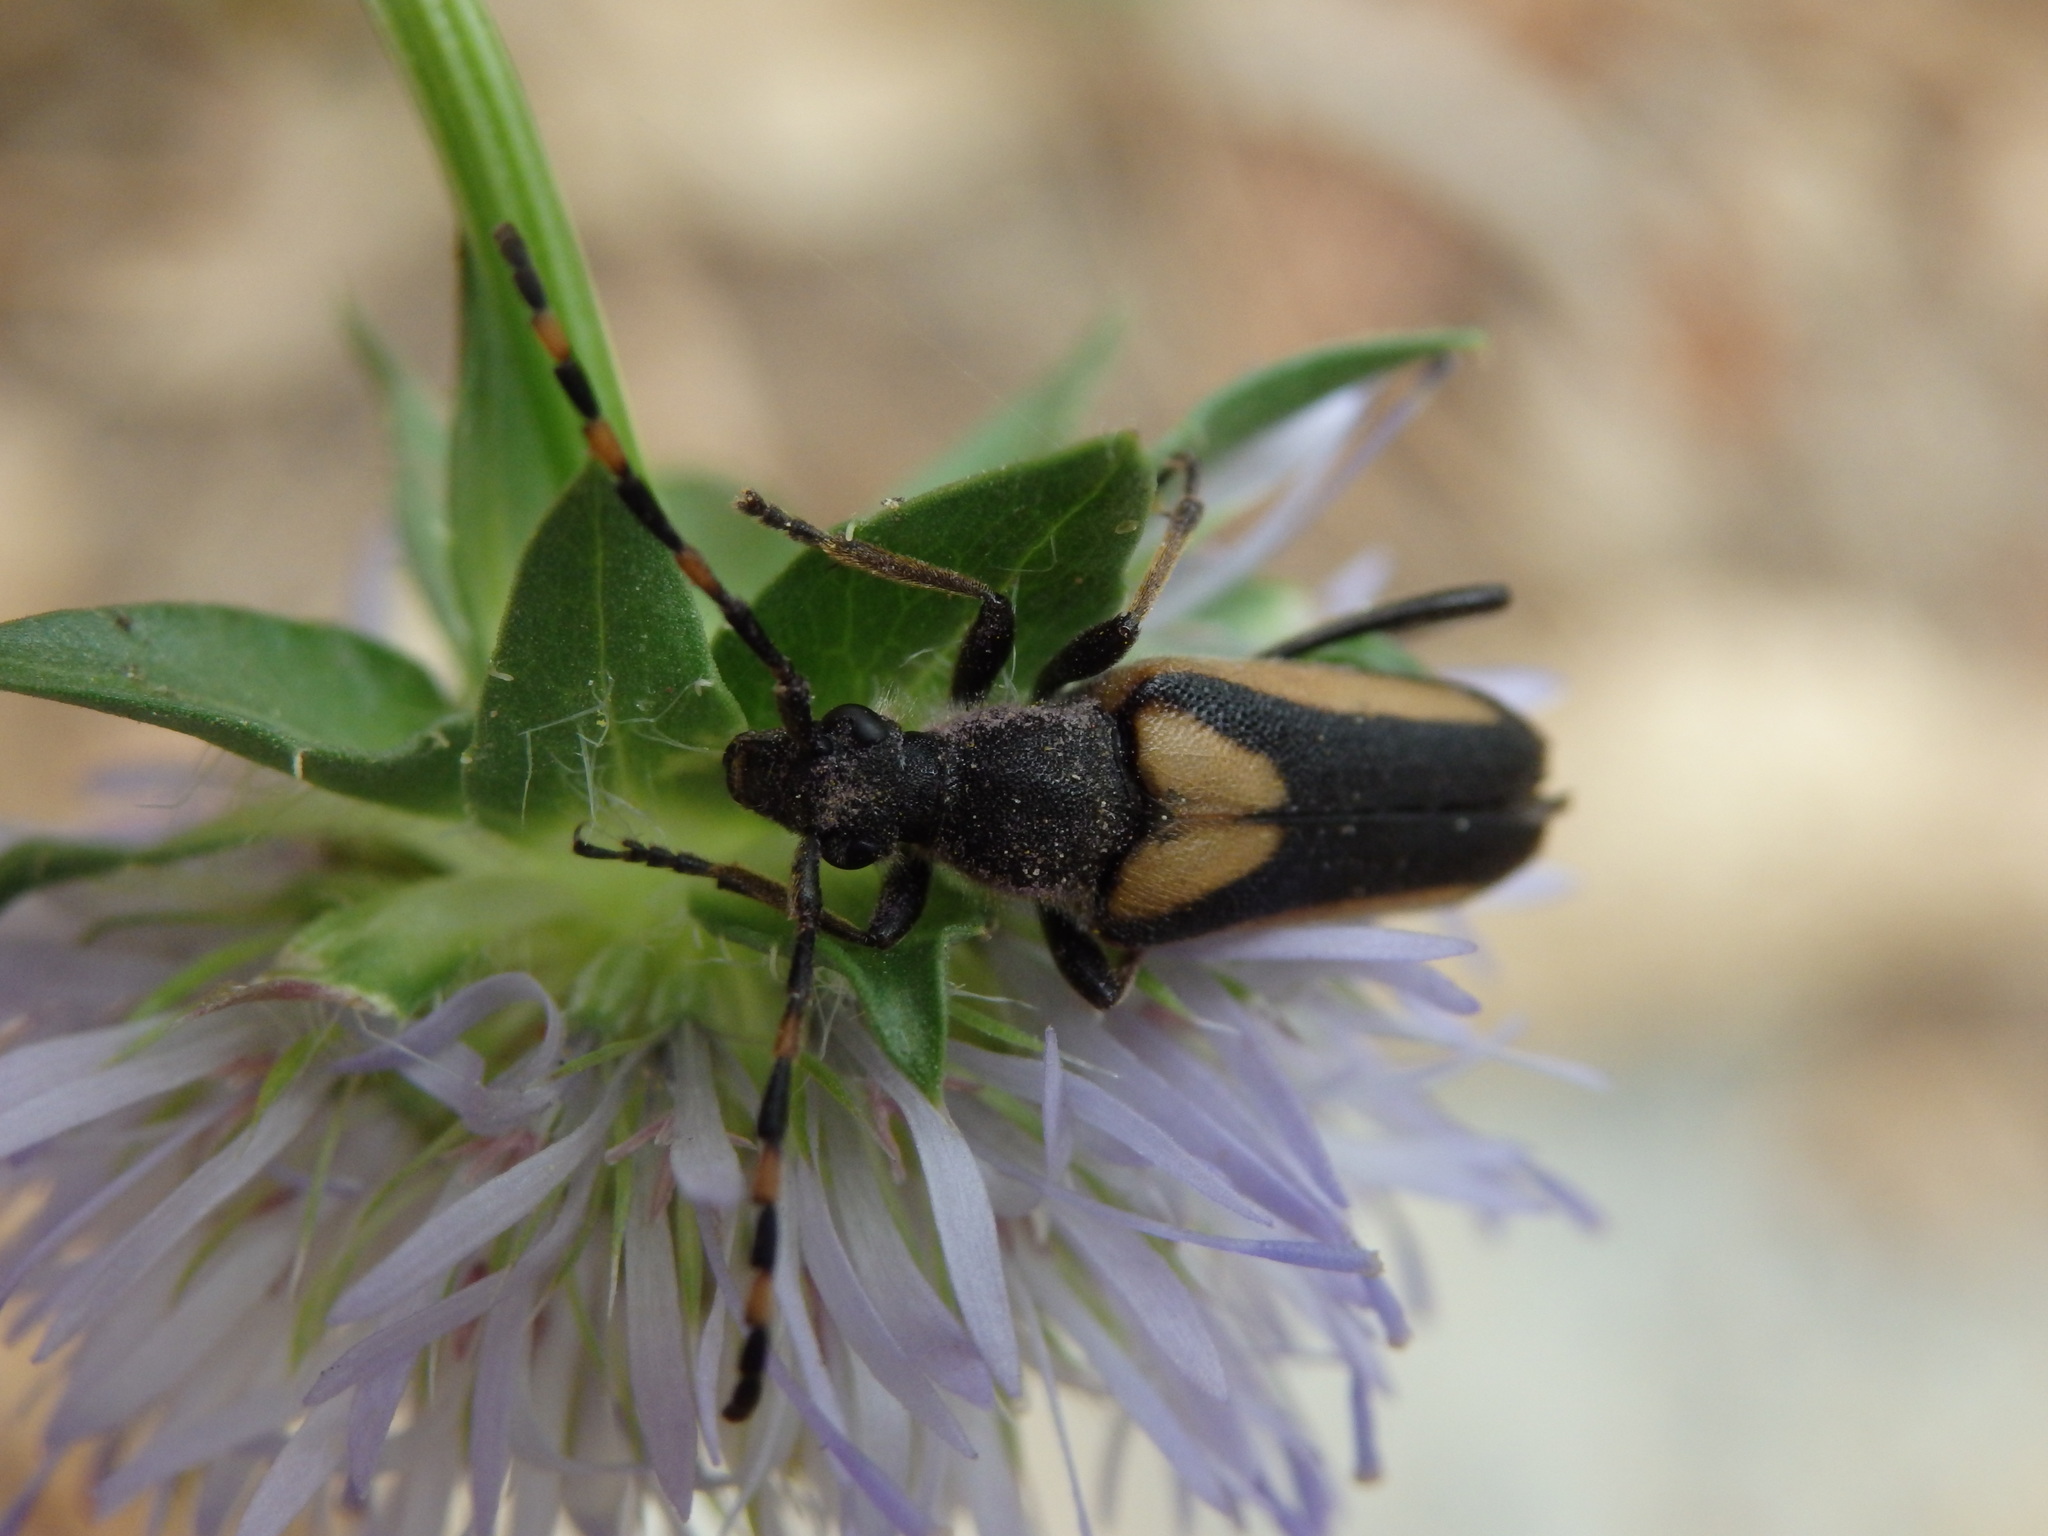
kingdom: Animalia
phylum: Arthropoda
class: Insecta
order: Coleoptera
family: Cerambycidae
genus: Stictoleptura
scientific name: Stictoleptura stragulata
